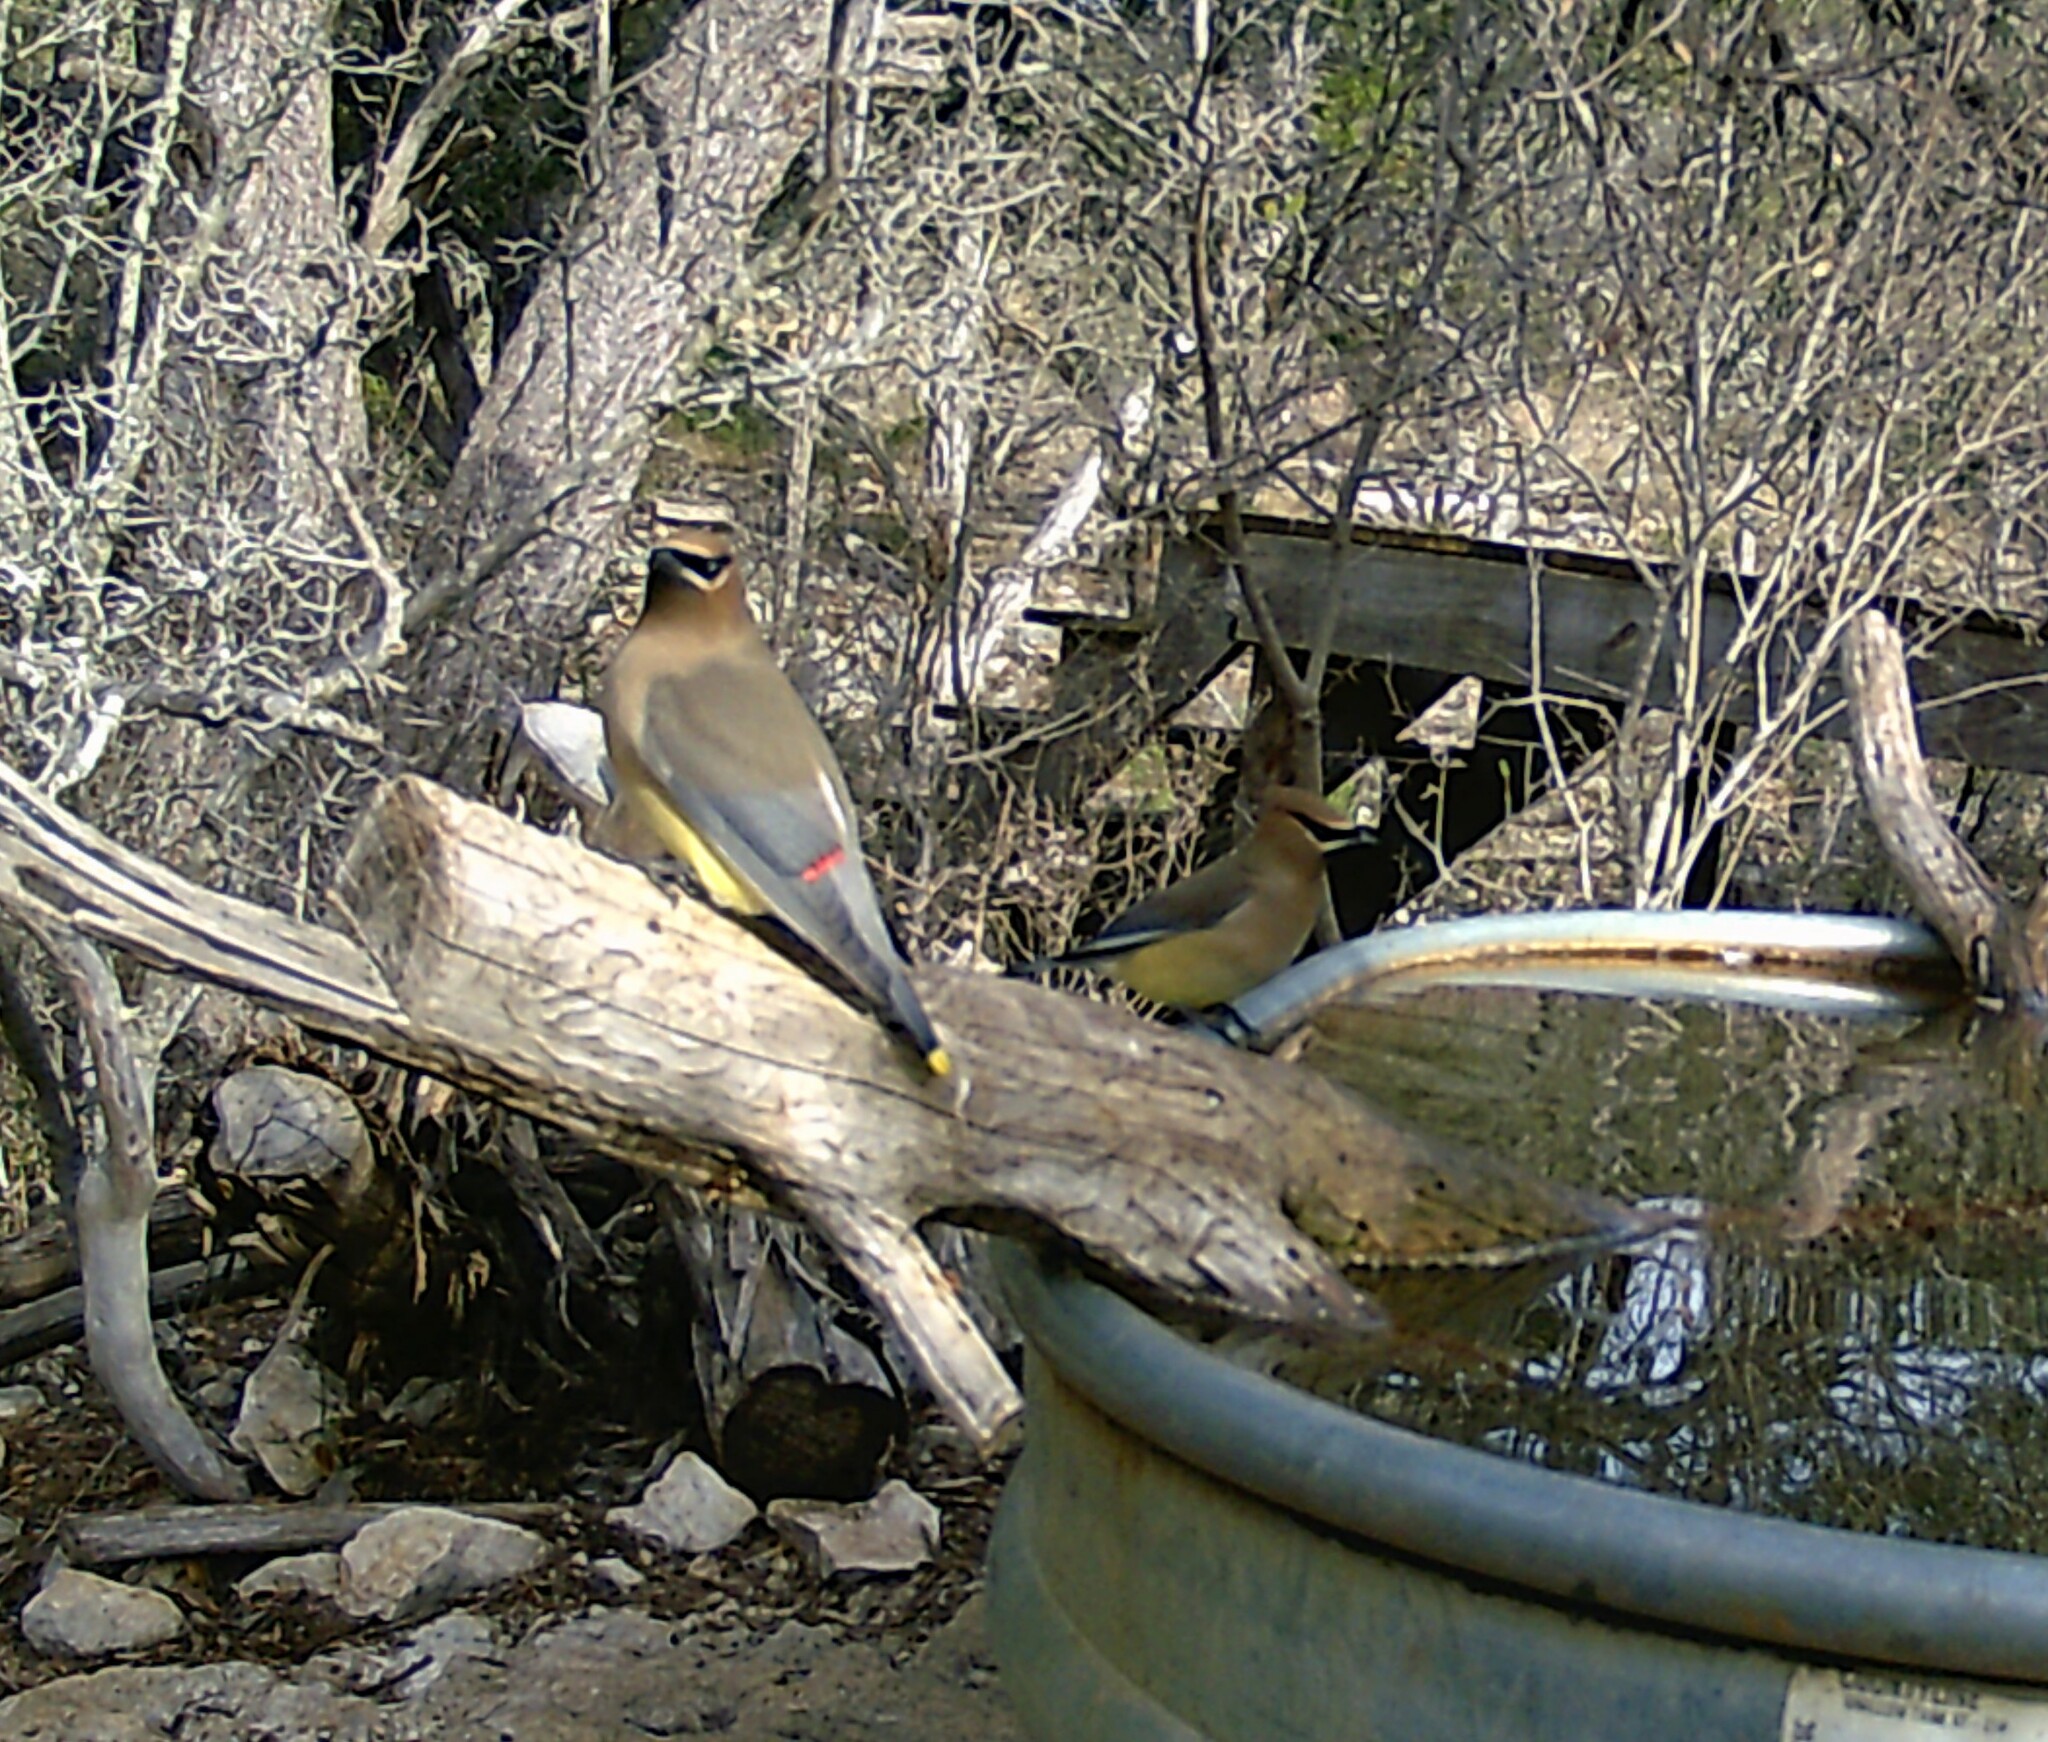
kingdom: Animalia
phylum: Chordata
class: Aves
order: Passeriformes
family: Bombycillidae
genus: Bombycilla
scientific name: Bombycilla cedrorum
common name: Cedar waxwing
